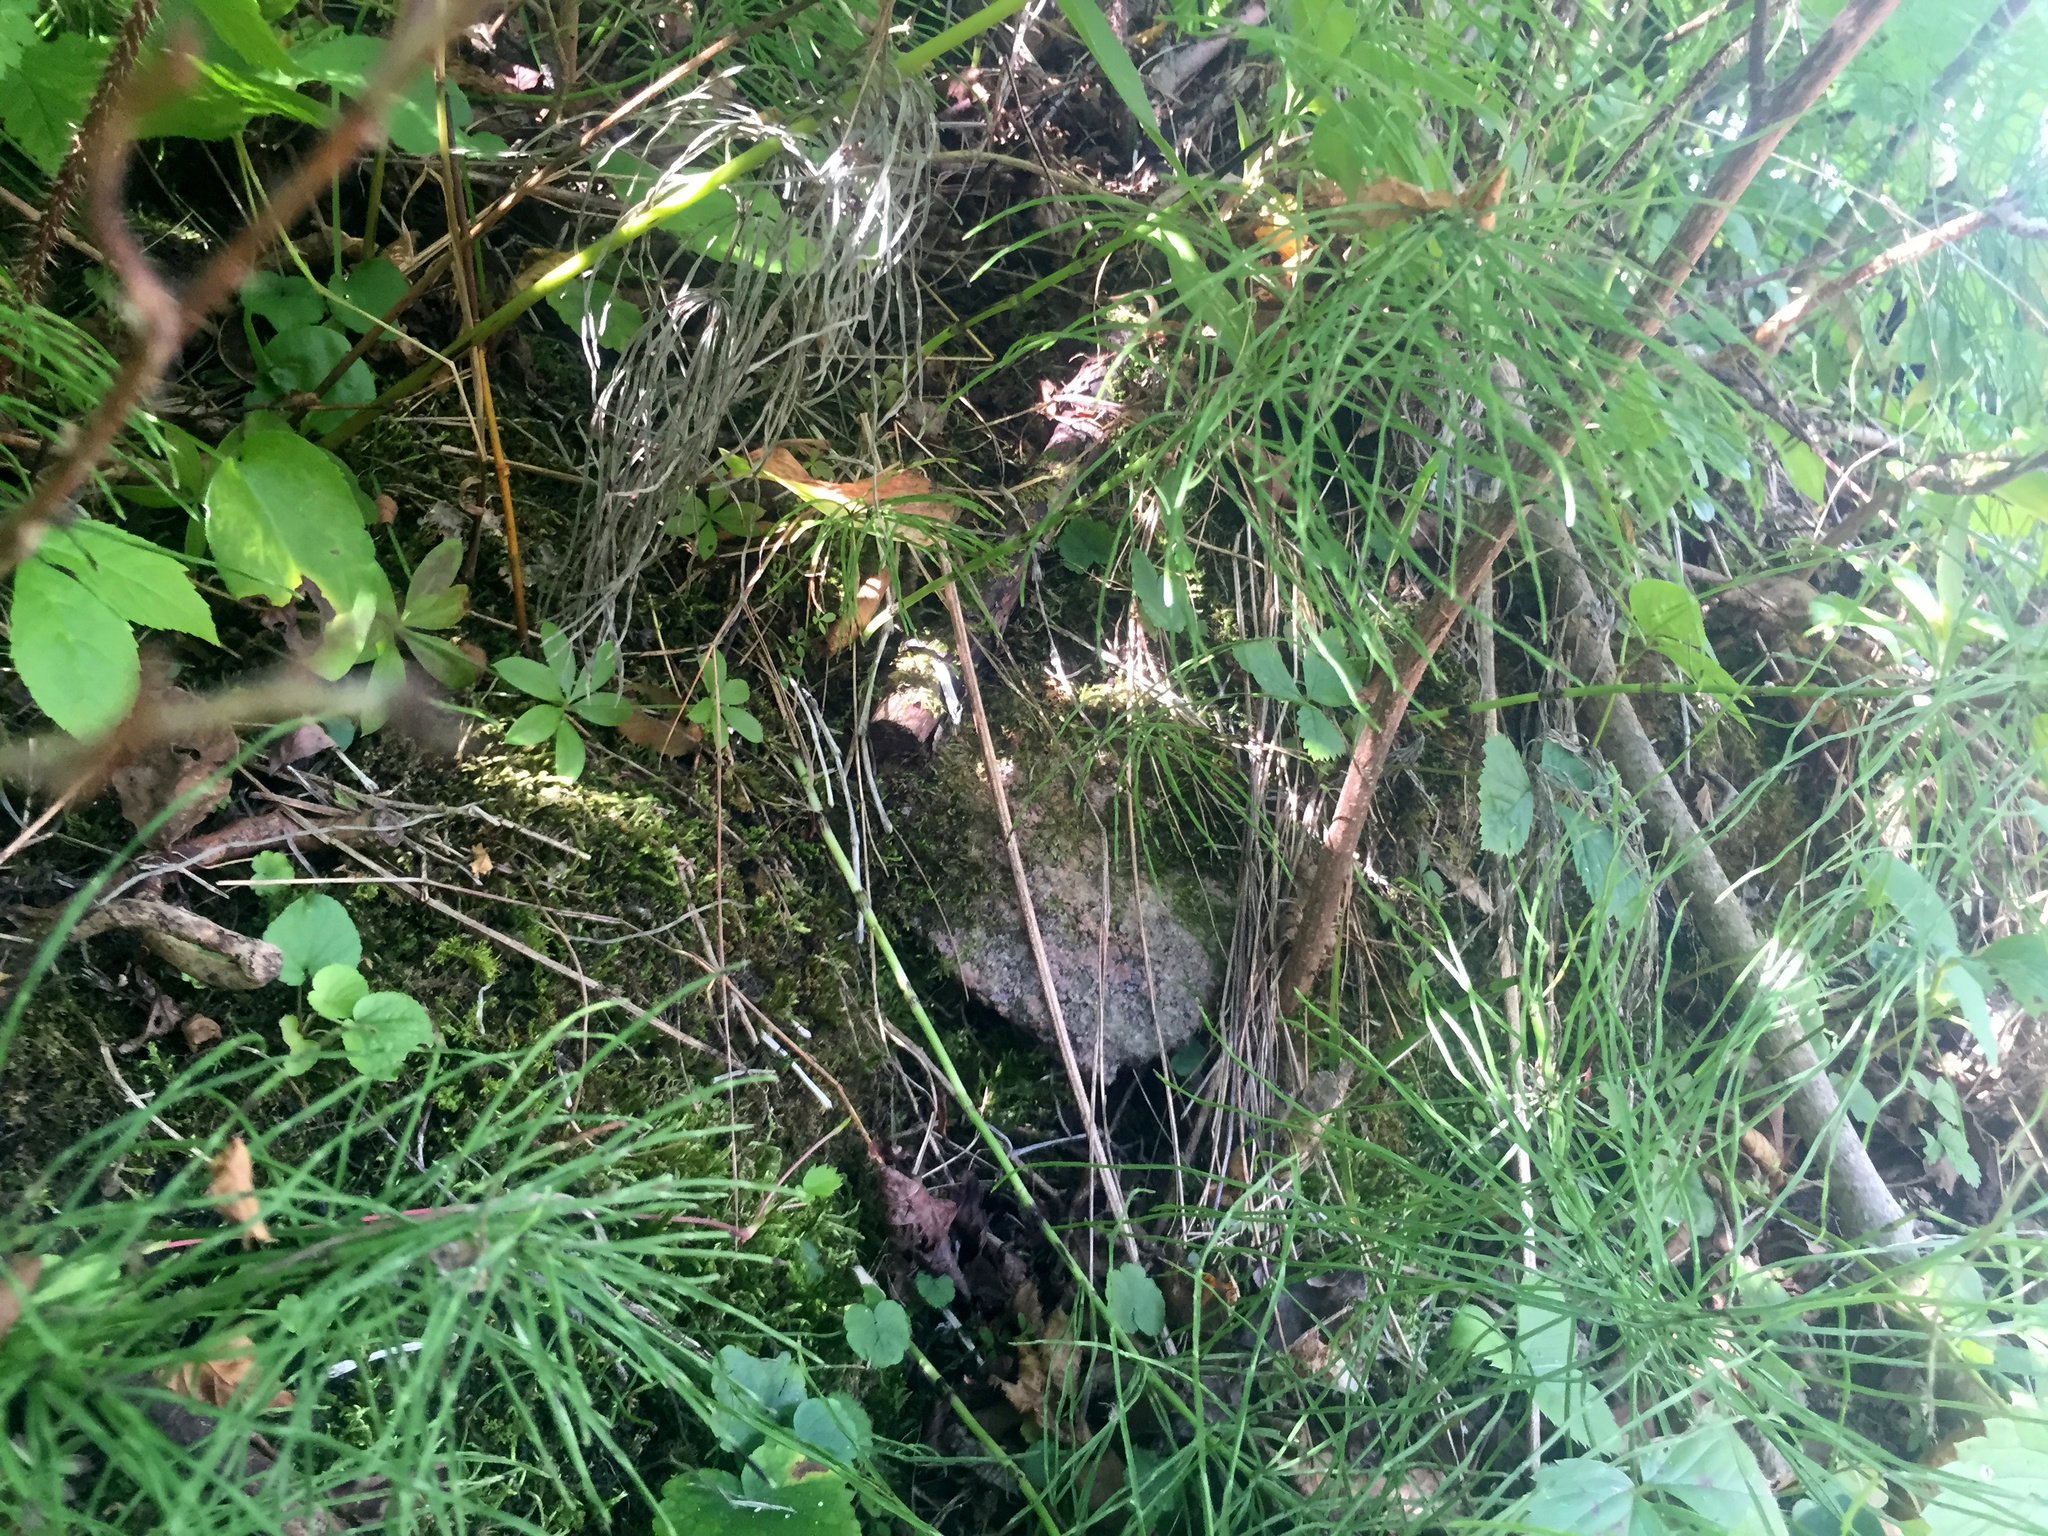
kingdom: Plantae
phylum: Tracheophyta
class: Polypodiopsida
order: Equisetales
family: Equisetaceae
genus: Equisetum
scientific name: Equisetum pratense
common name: Meadow horsetail
